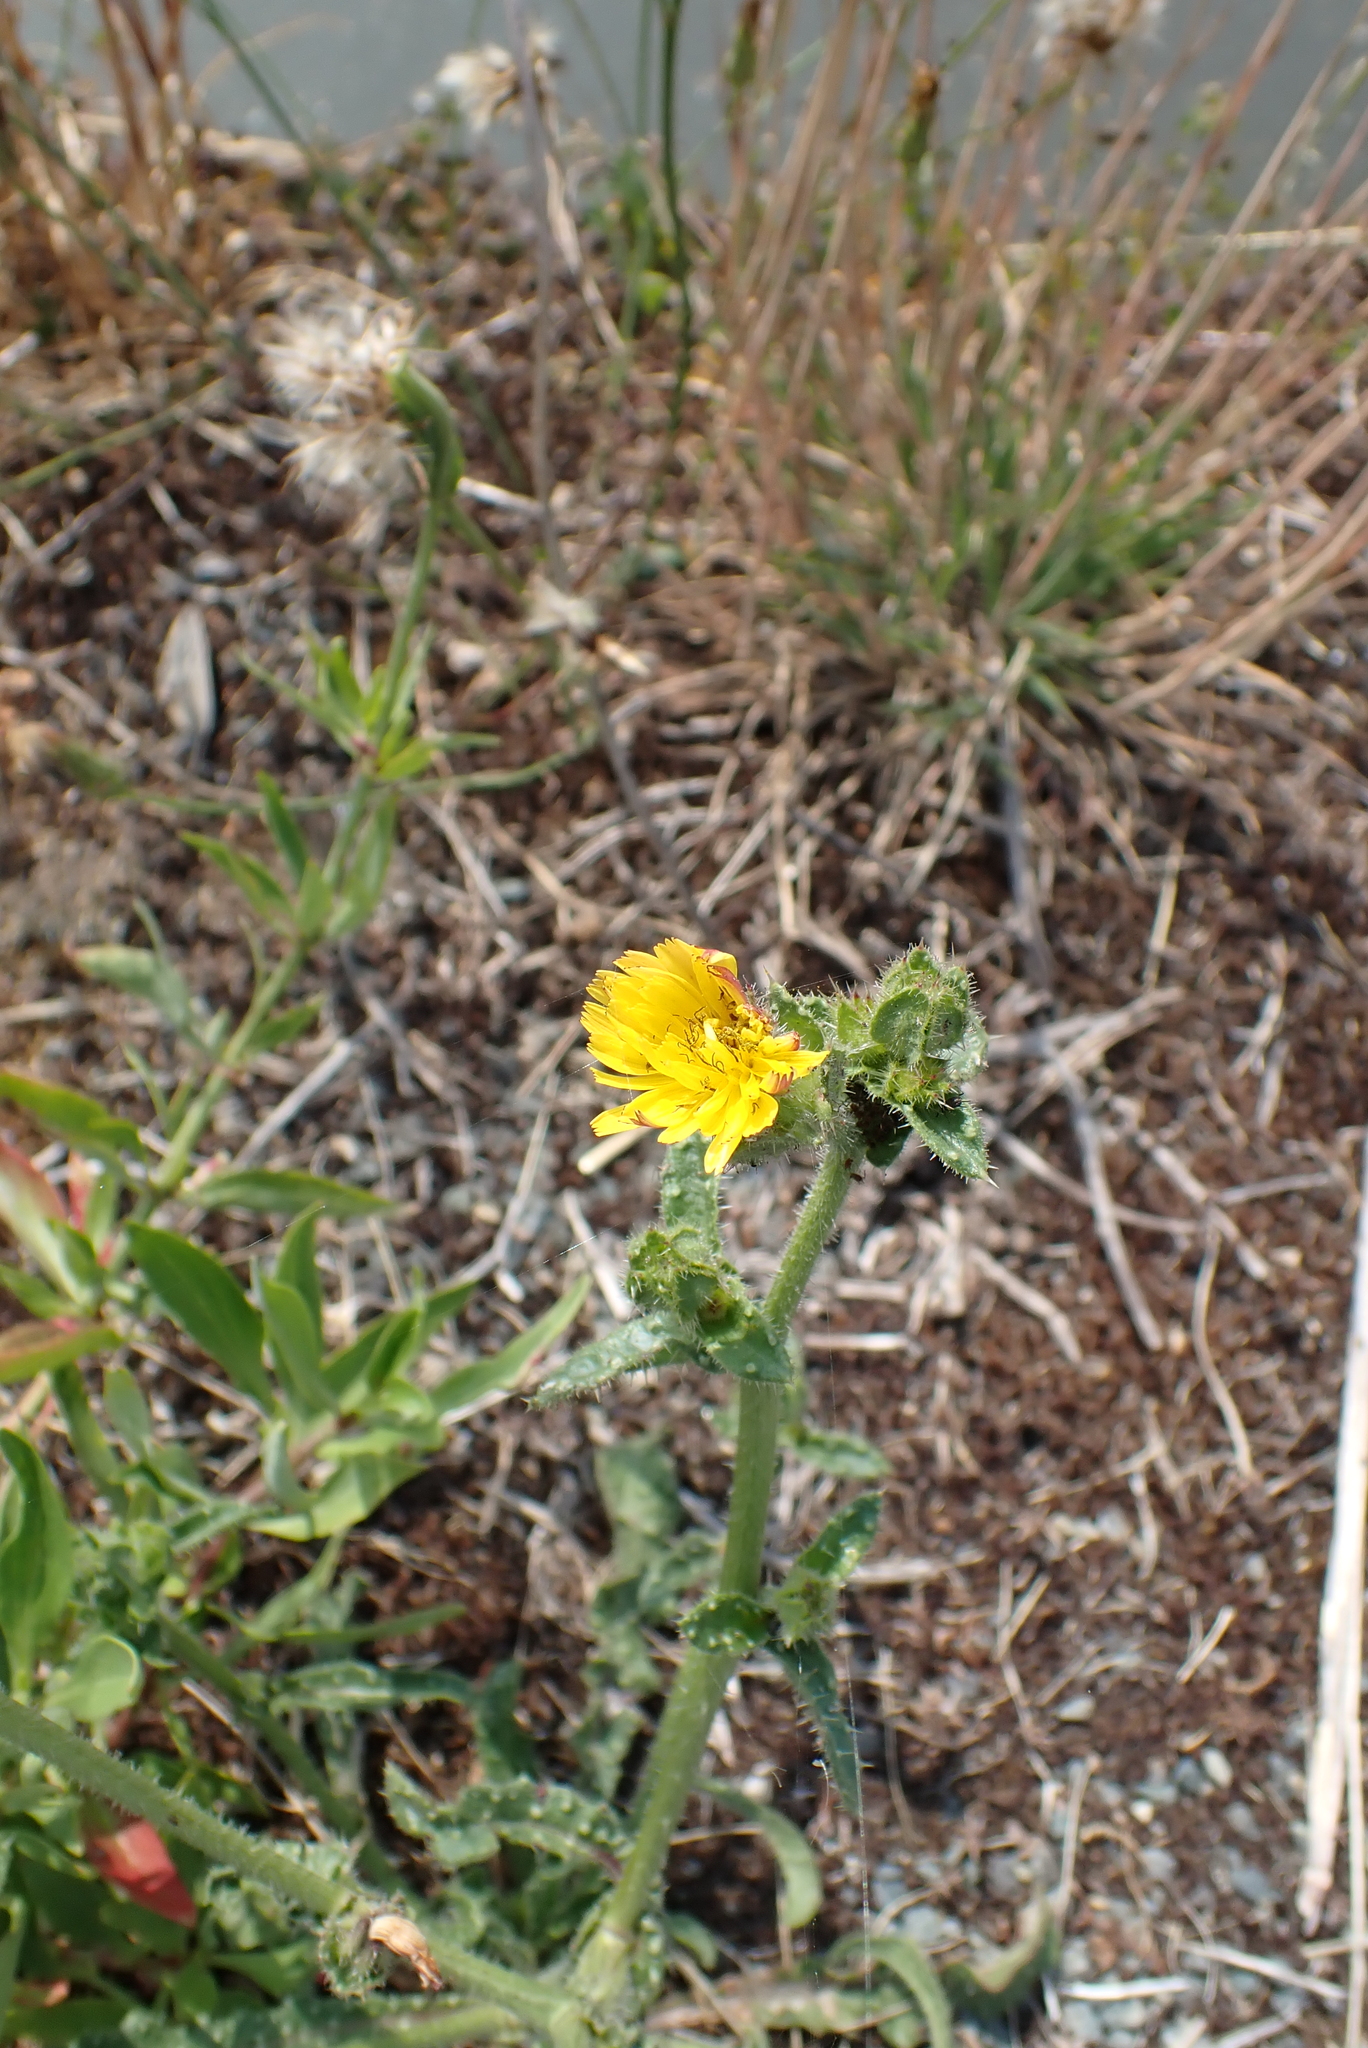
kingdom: Plantae
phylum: Tracheophyta
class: Magnoliopsida
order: Asterales
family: Asteraceae
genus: Helminthotheca
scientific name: Helminthotheca echioides
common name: Ox-tongue
